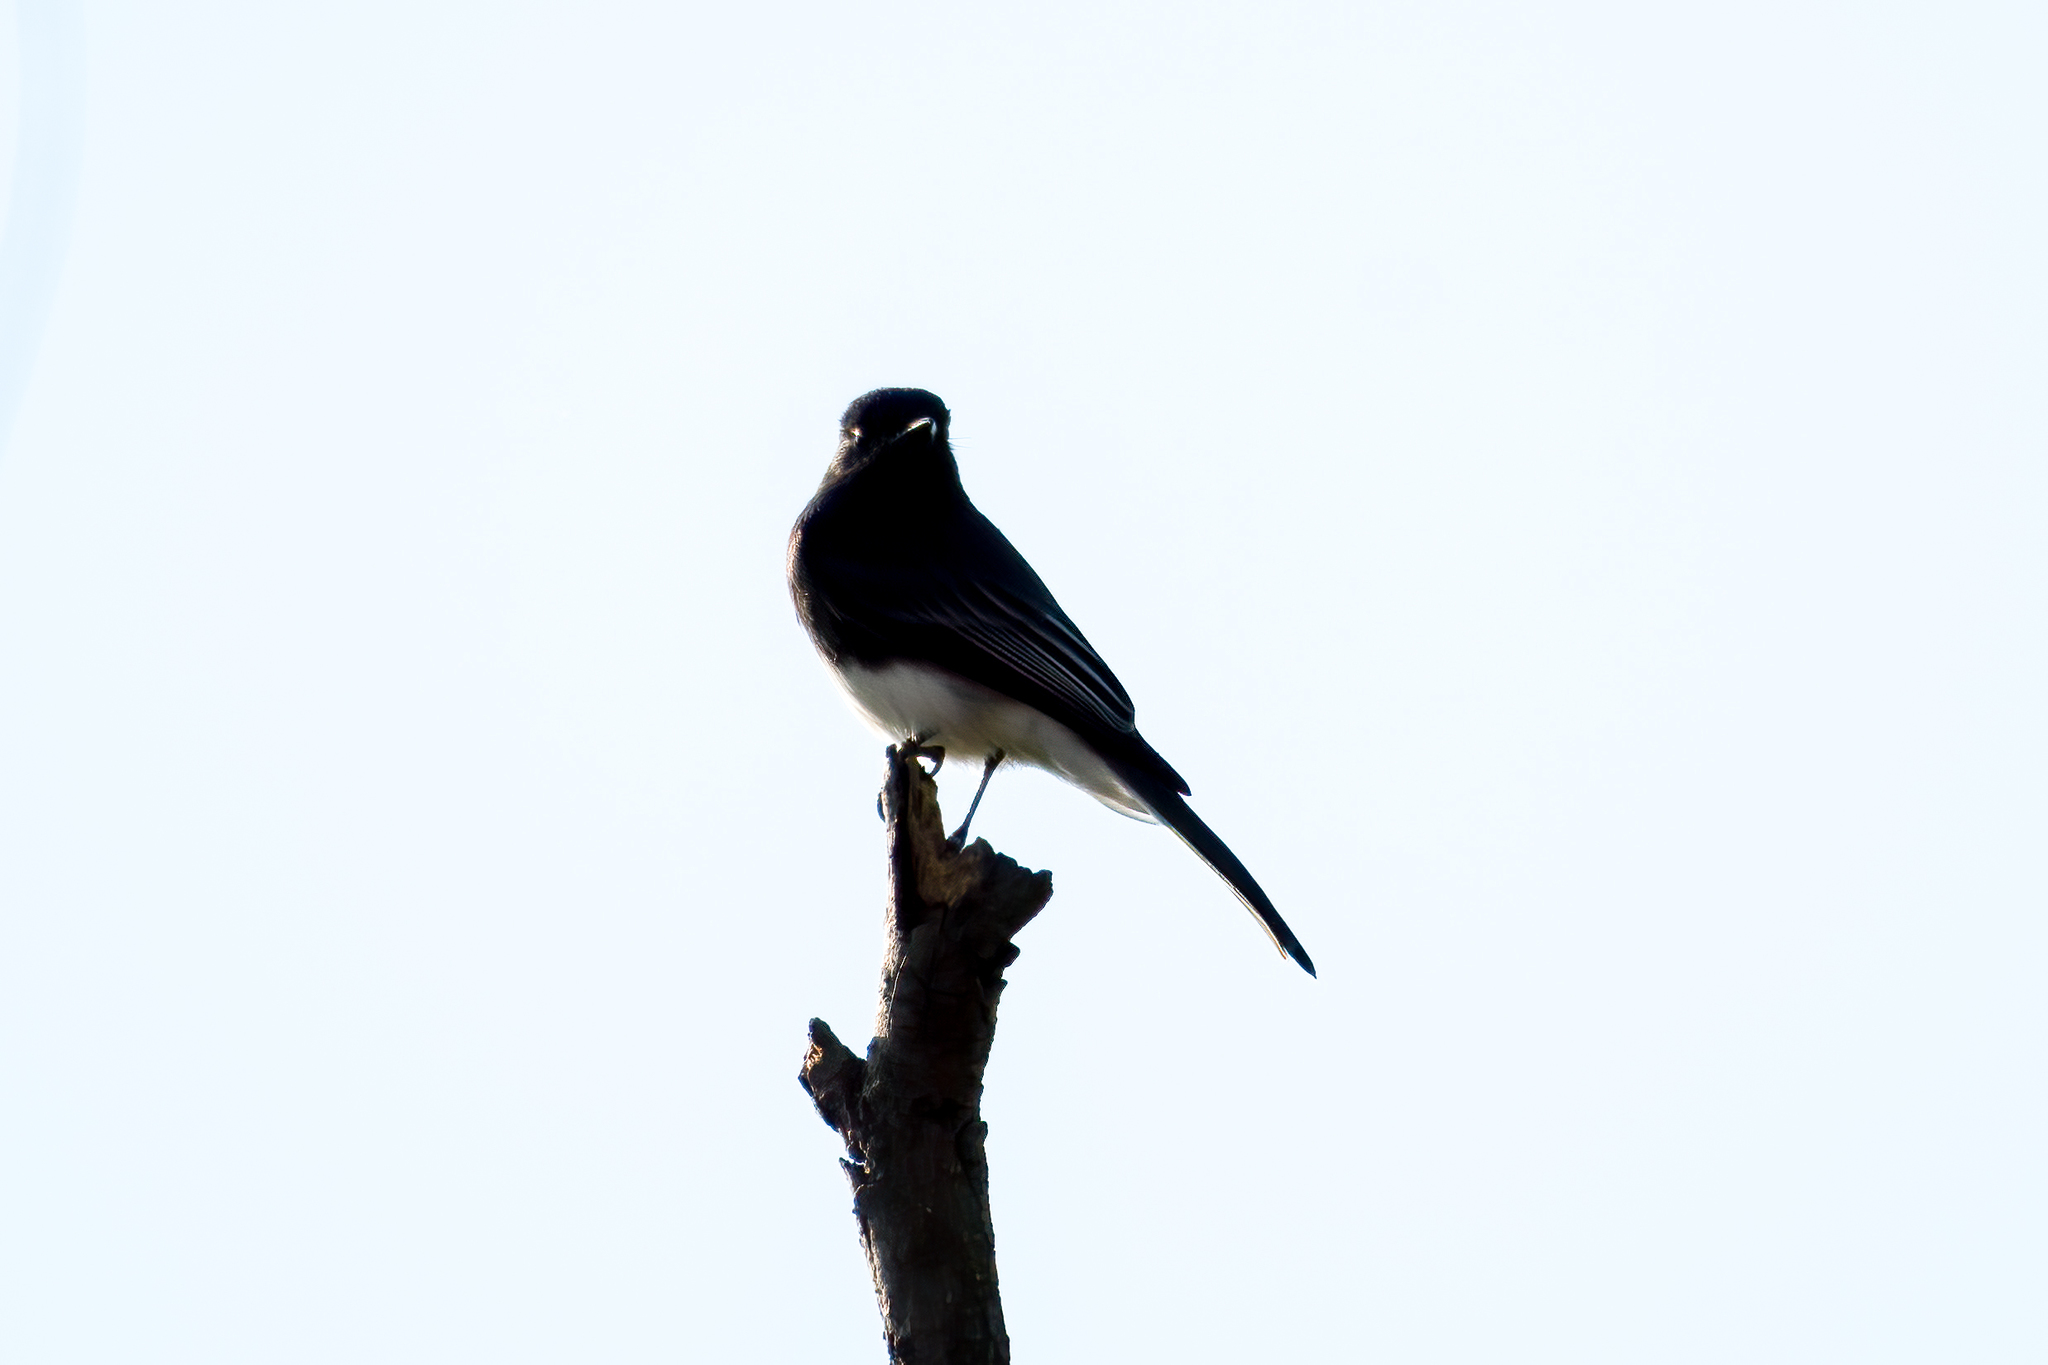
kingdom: Animalia
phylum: Chordata
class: Aves
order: Passeriformes
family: Tyrannidae
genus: Sayornis
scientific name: Sayornis nigricans
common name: Black phoebe
